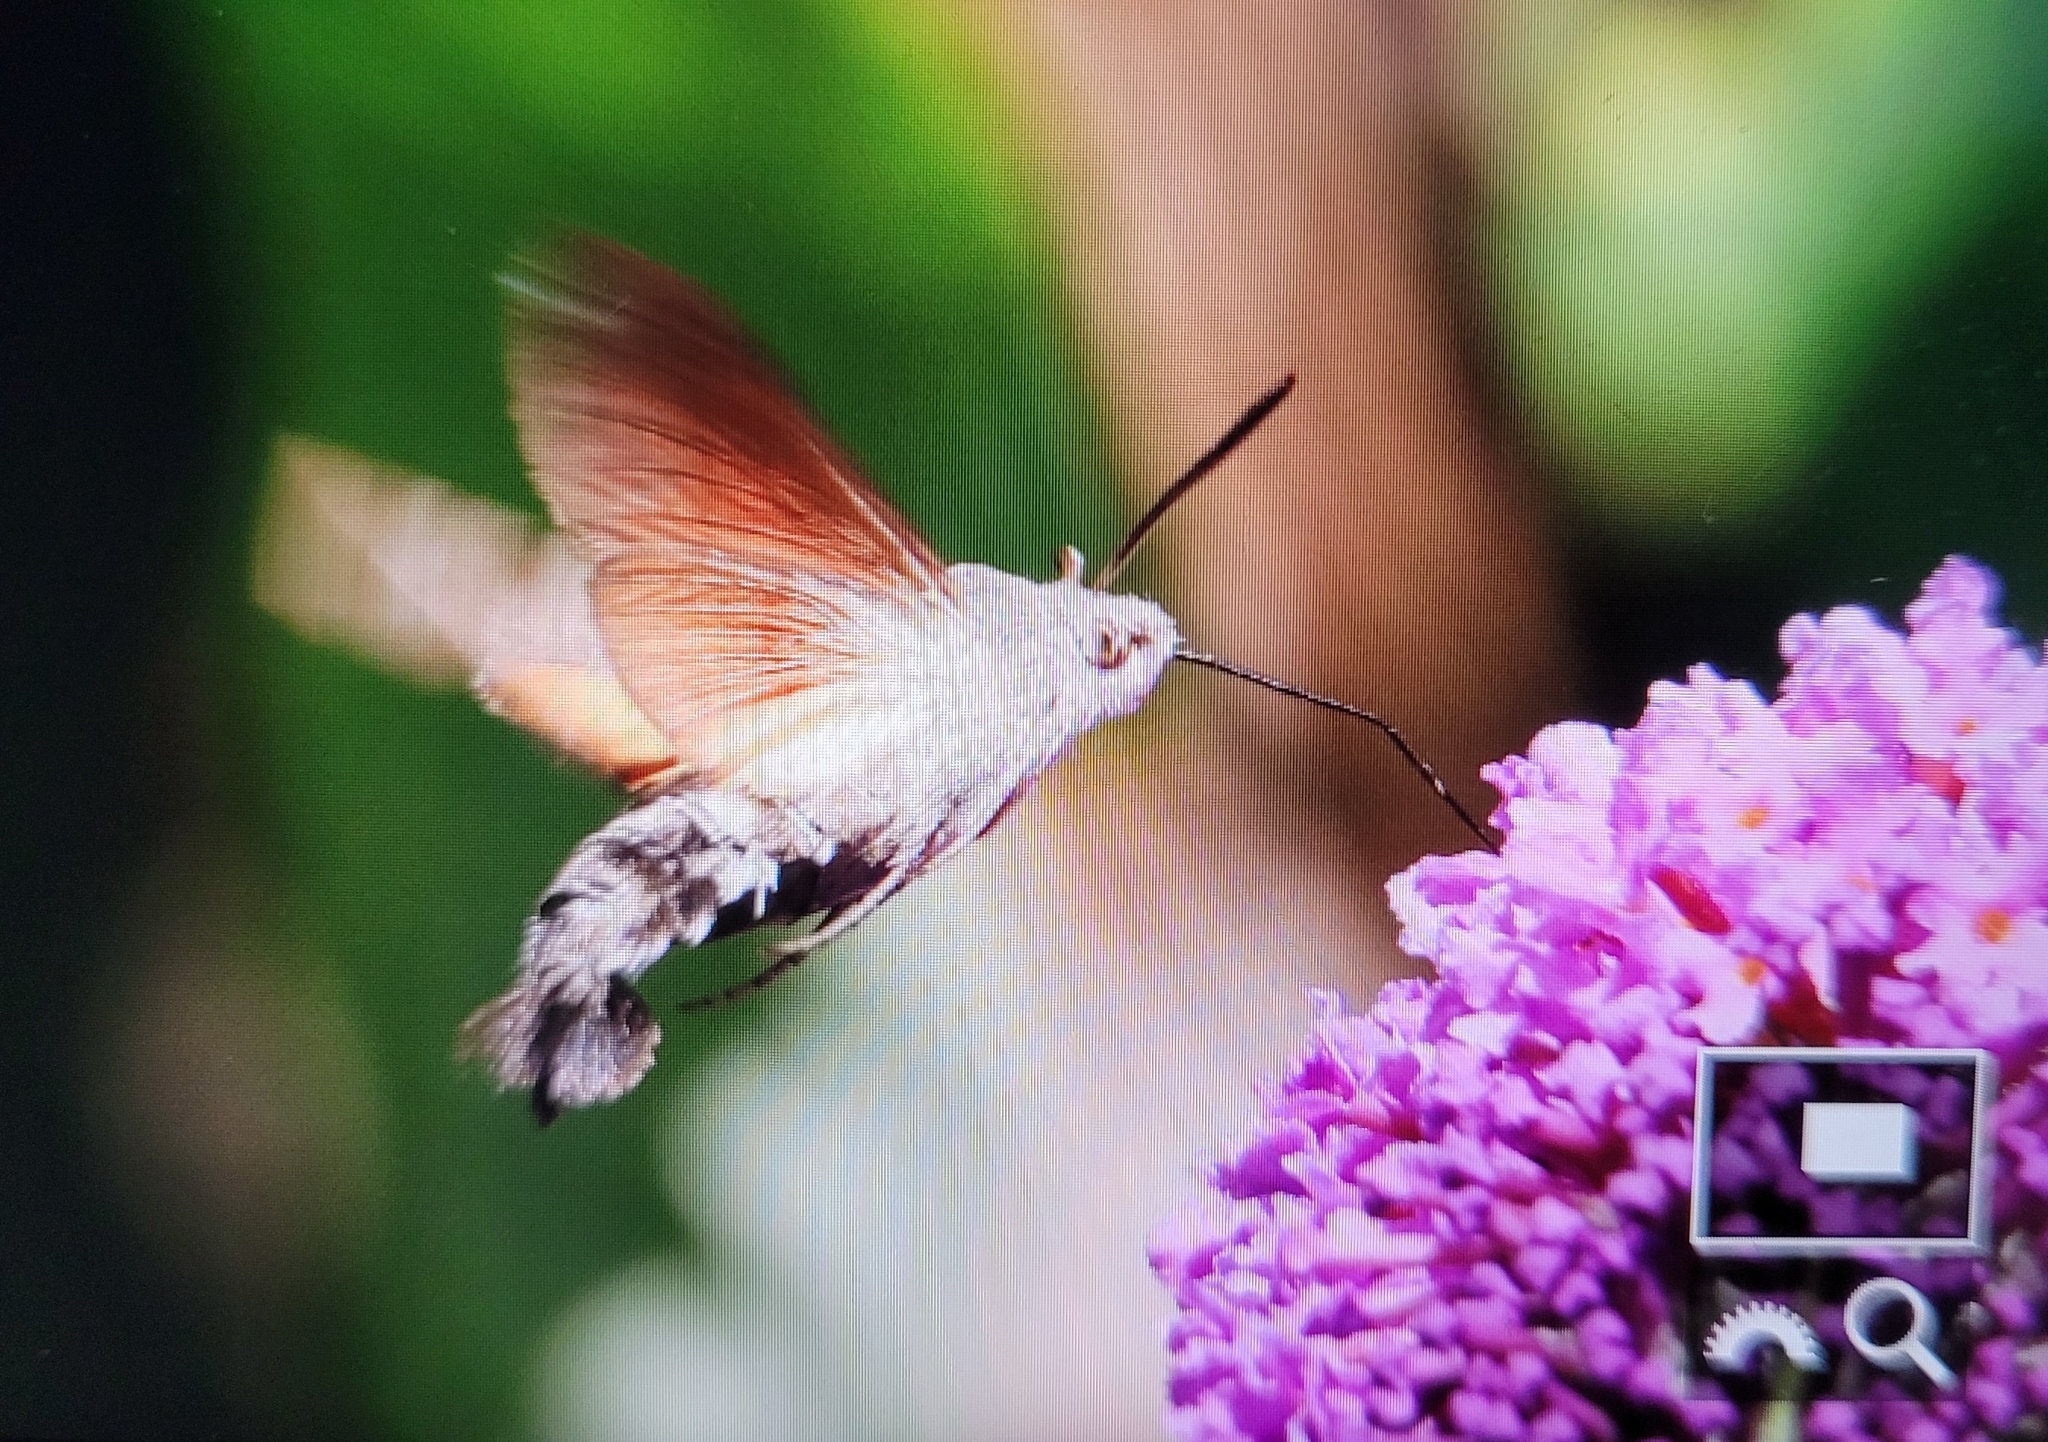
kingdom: Animalia
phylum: Arthropoda
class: Insecta
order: Lepidoptera
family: Sphingidae
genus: Macroglossum
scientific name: Macroglossum stellatarum
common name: Humming-bird hawk-moth
